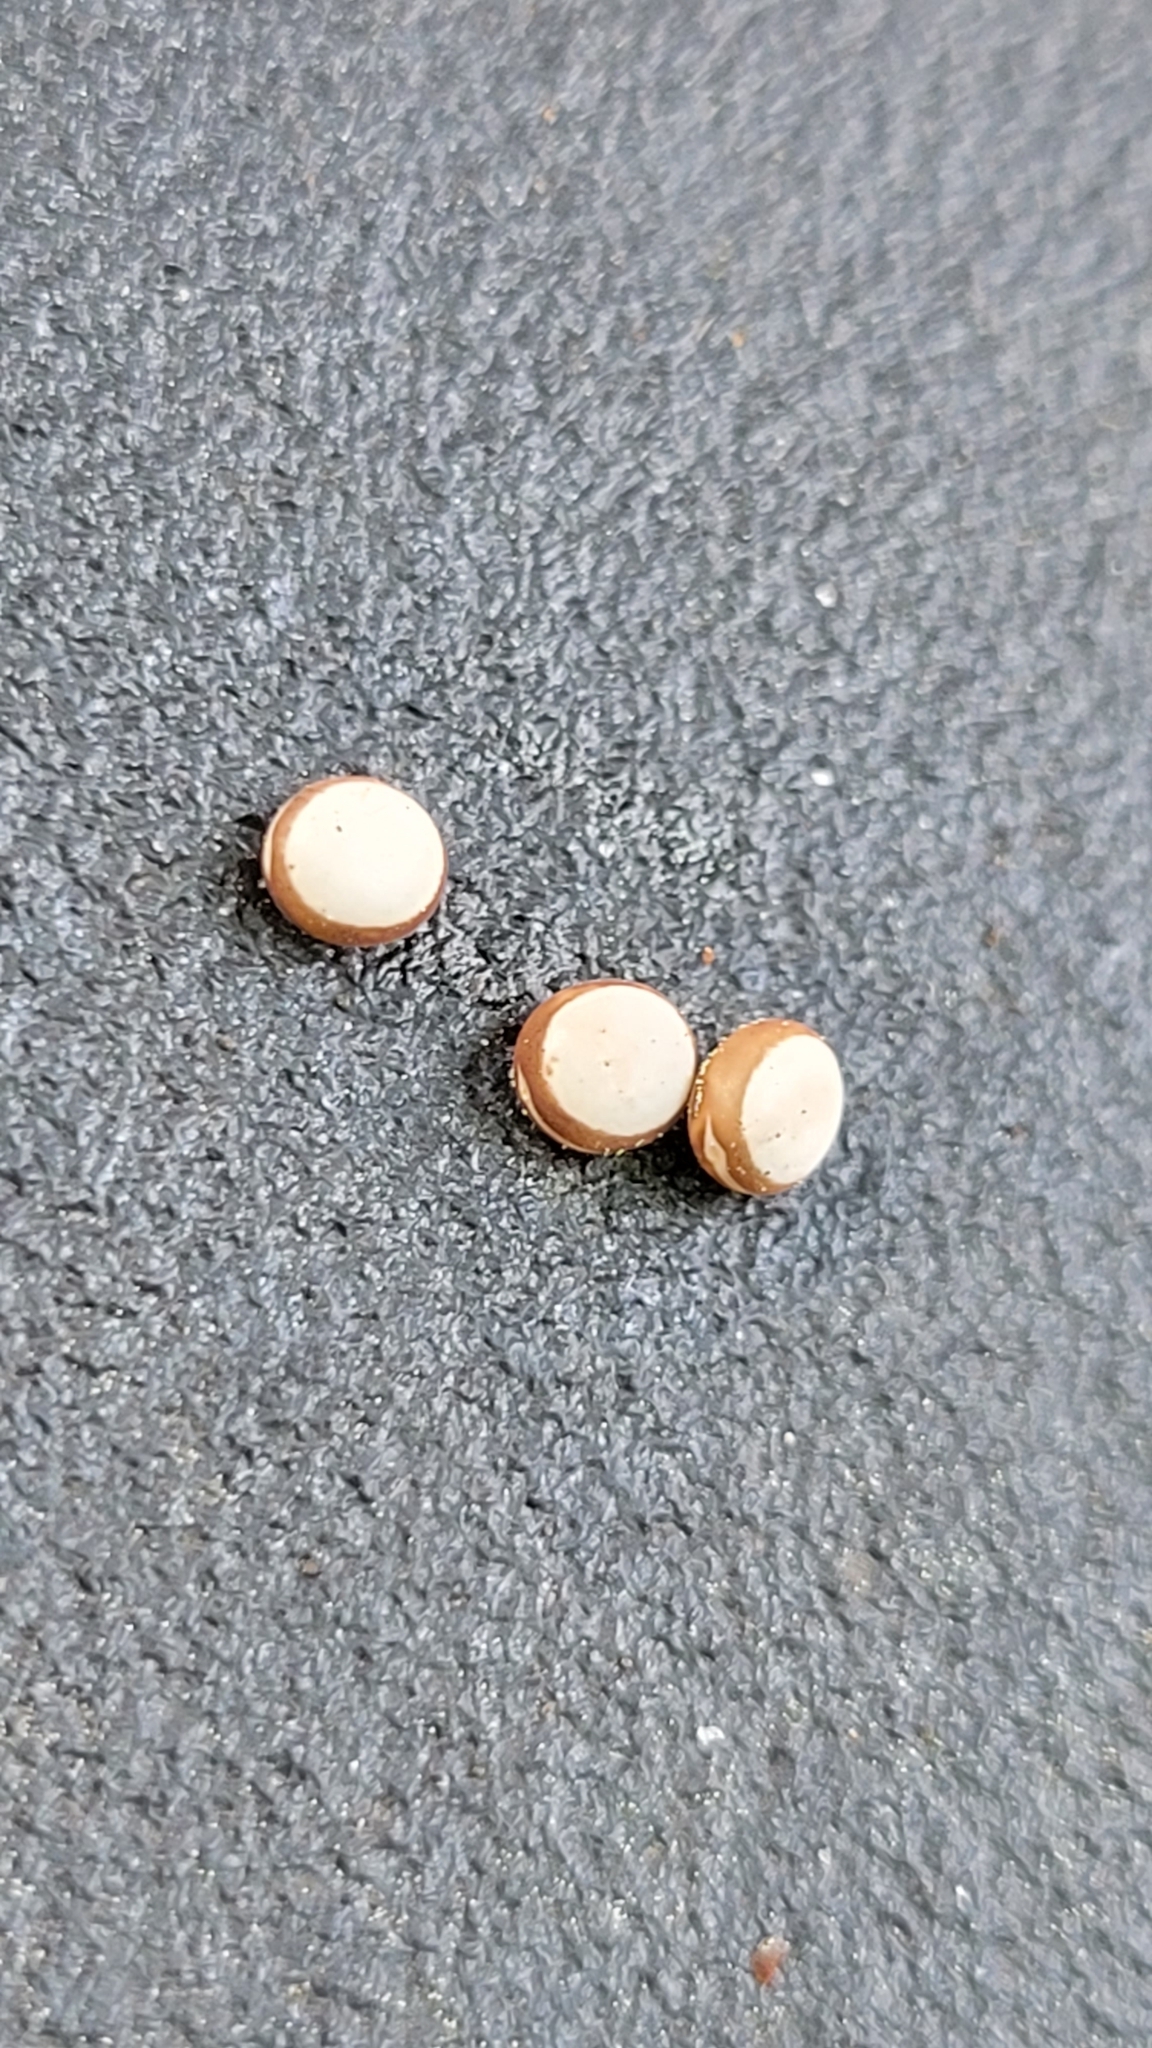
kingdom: Animalia
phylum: Arthropoda
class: Insecta
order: Lepidoptera
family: Saturniidae
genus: Antheraea
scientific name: Antheraea polyphemus
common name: Polyphemus moth
